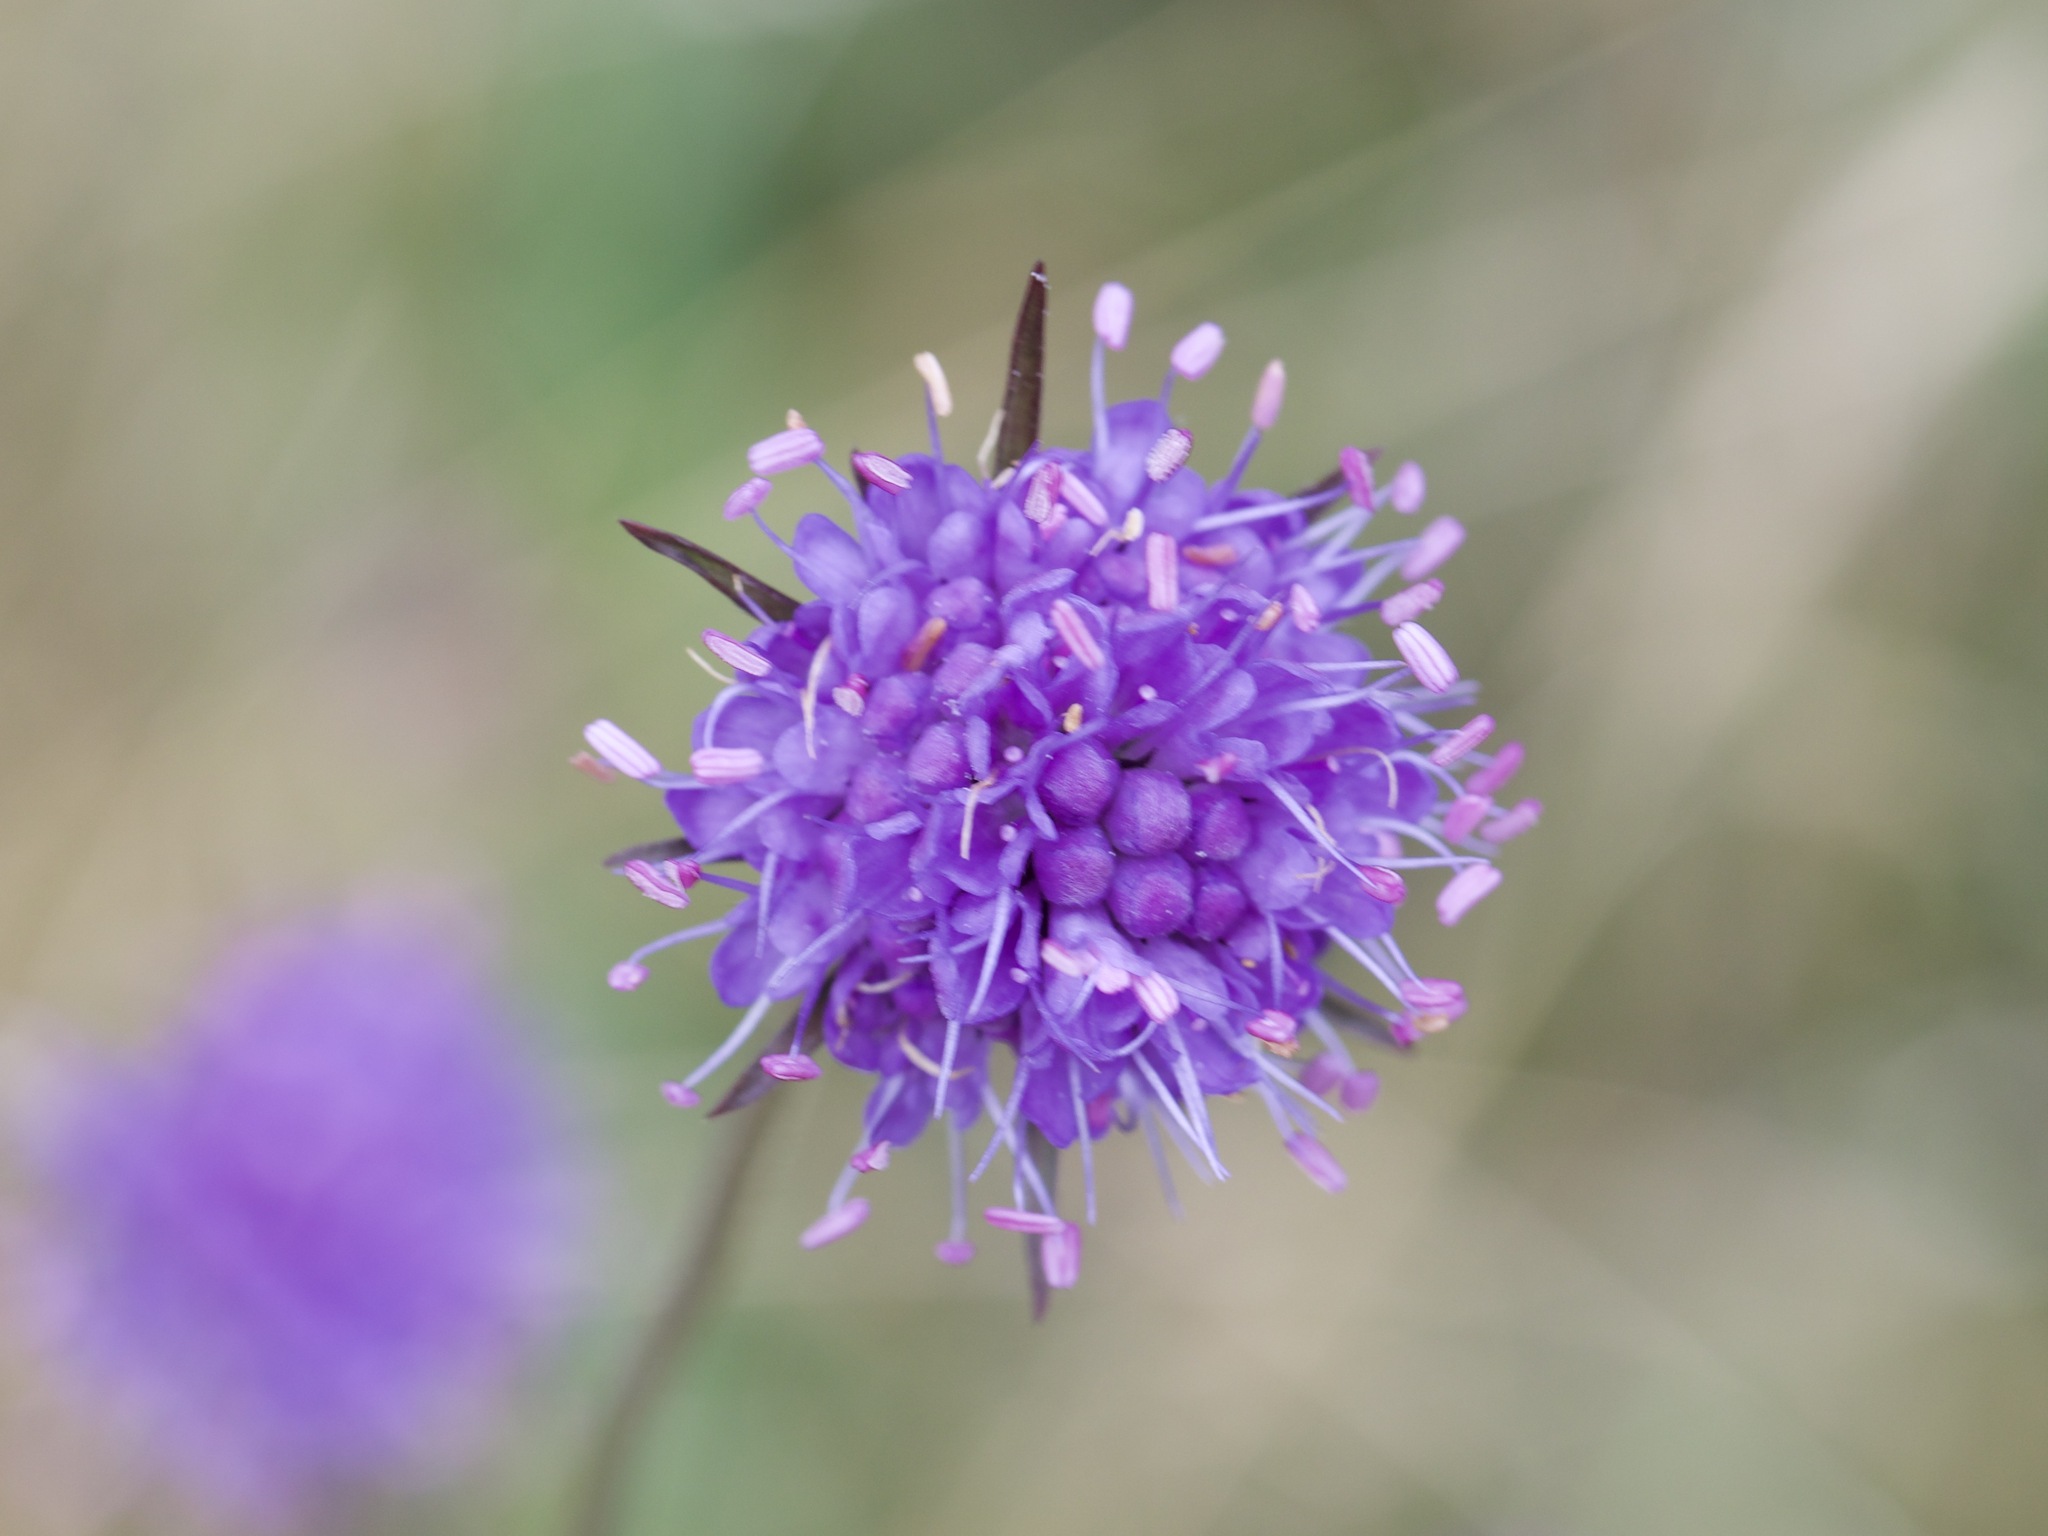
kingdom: Plantae
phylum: Tracheophyta
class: Magnoliopsida
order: Dipsacales
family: Caprifoliaceae
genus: Succisa
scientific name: Succisa pratensis
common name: Devil's-bit
